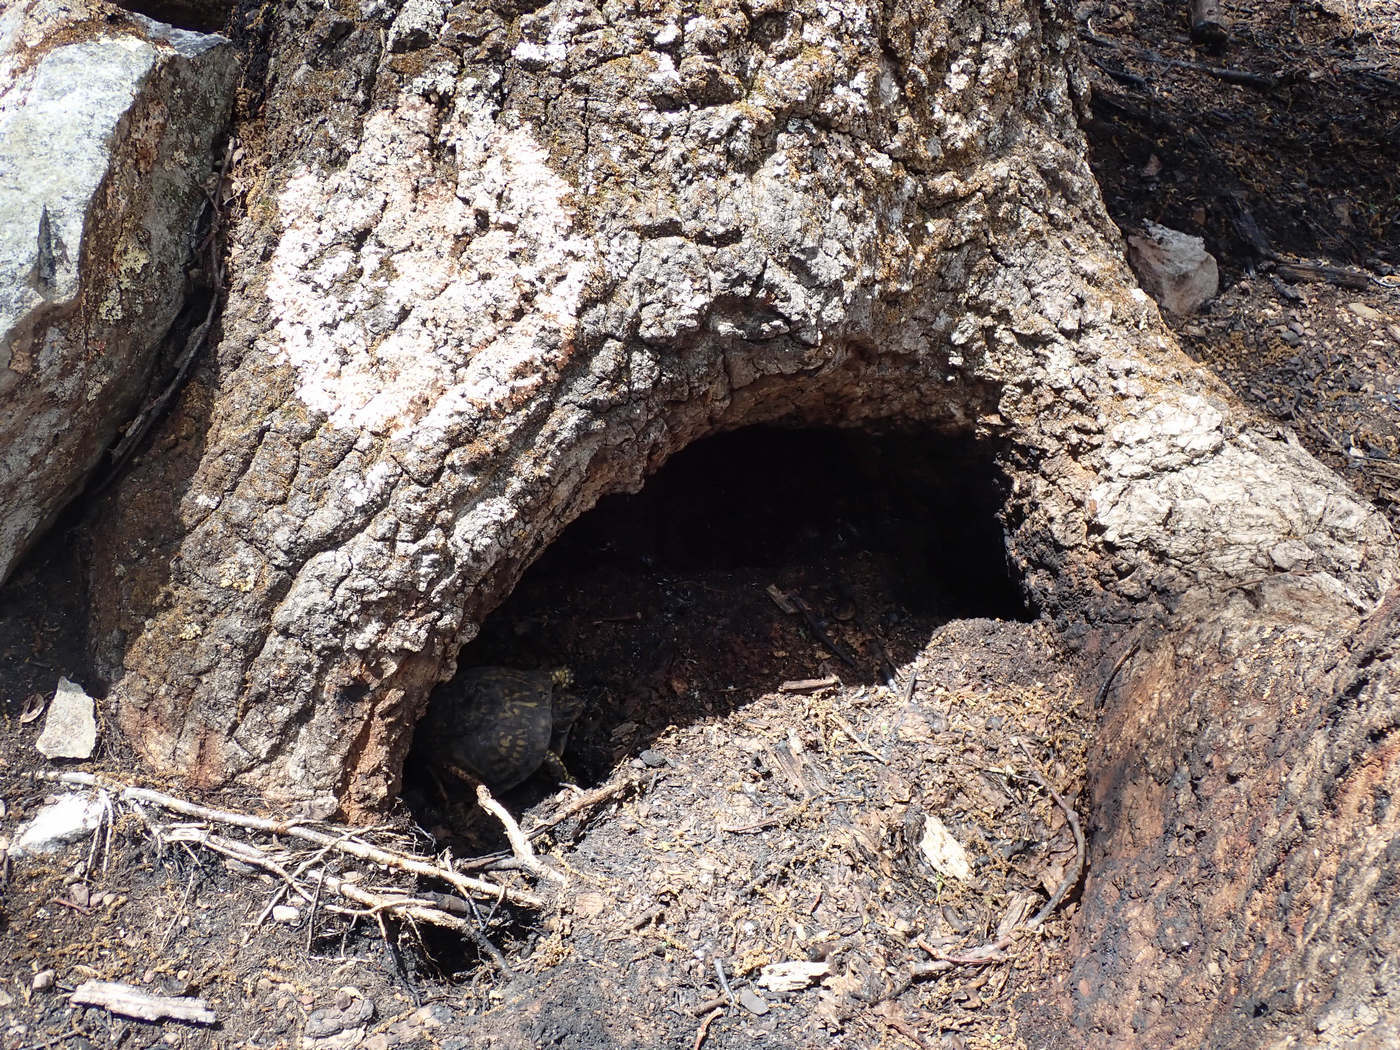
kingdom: Animalia
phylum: Chordata
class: Testudines
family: Emydidae
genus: Terrapene
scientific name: Terrapene carolina
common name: Common box turtle
